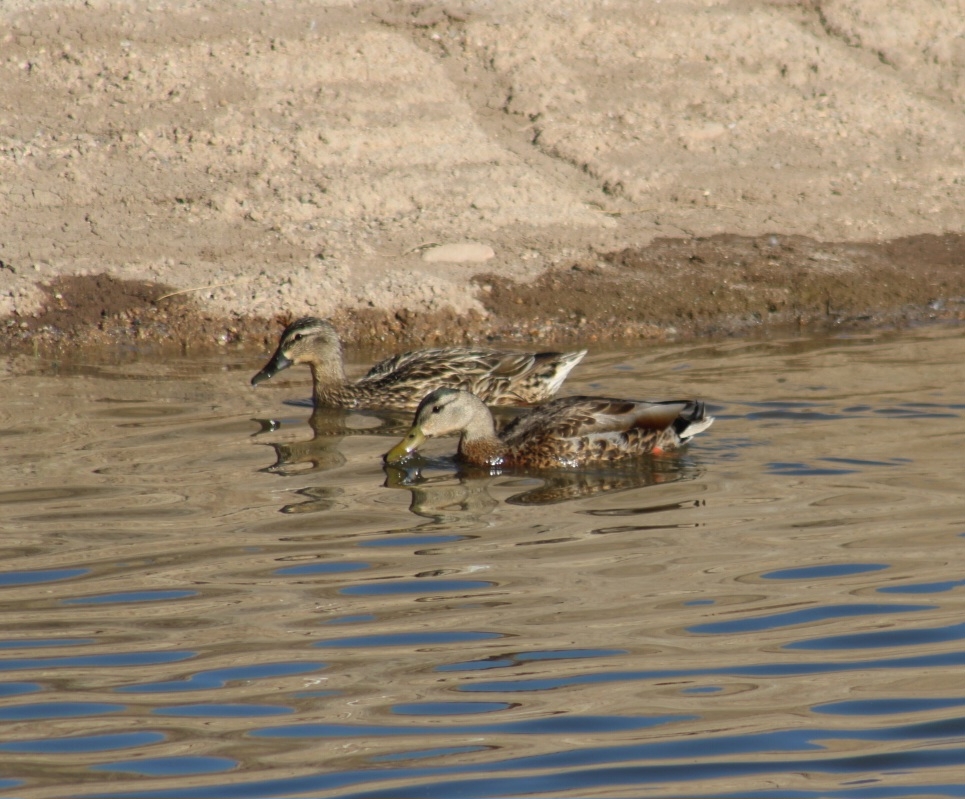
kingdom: Animalia
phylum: Chordata
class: Aves
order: Anseriformes
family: Anatidae
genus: Anas
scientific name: Anas platyrhynchos
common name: Mallard
